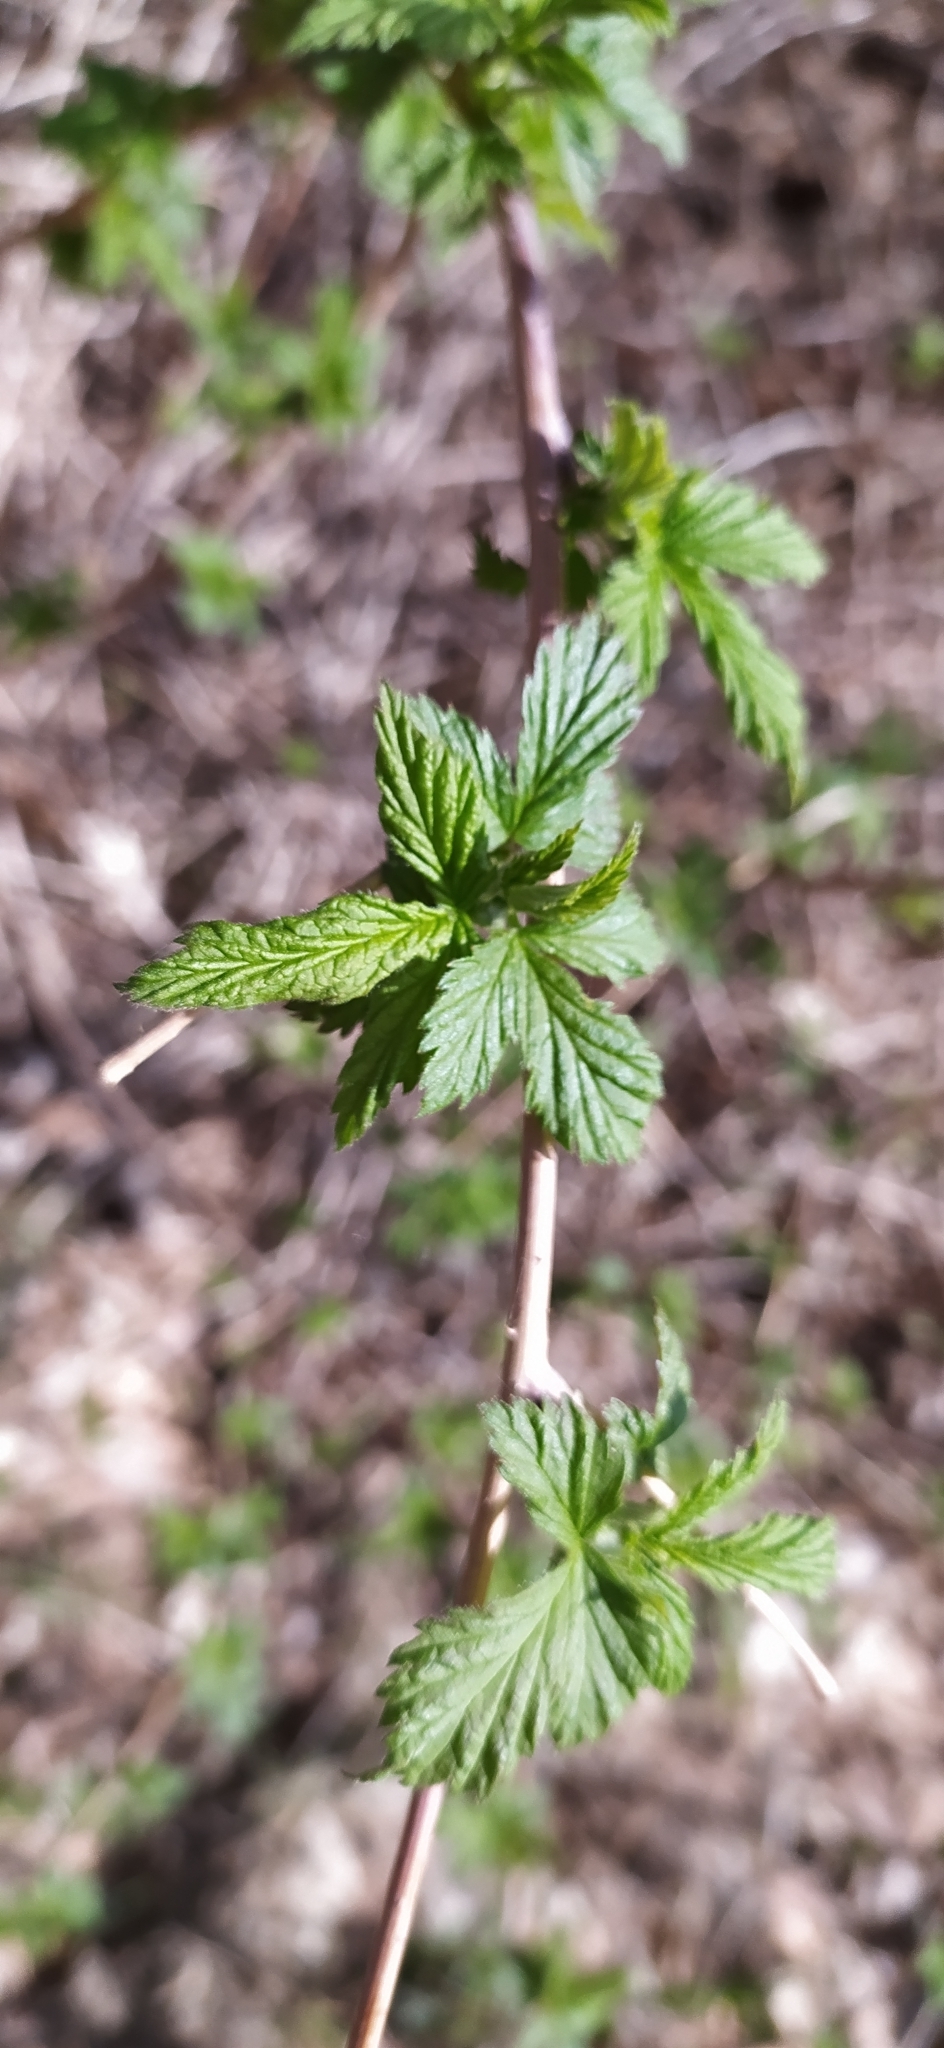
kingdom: Plantae
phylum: Tracheophyta
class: Magnoliopsida
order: Rosales
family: Rosaceae
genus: Rubus
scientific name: Rubus idaeus
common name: Raspberry
